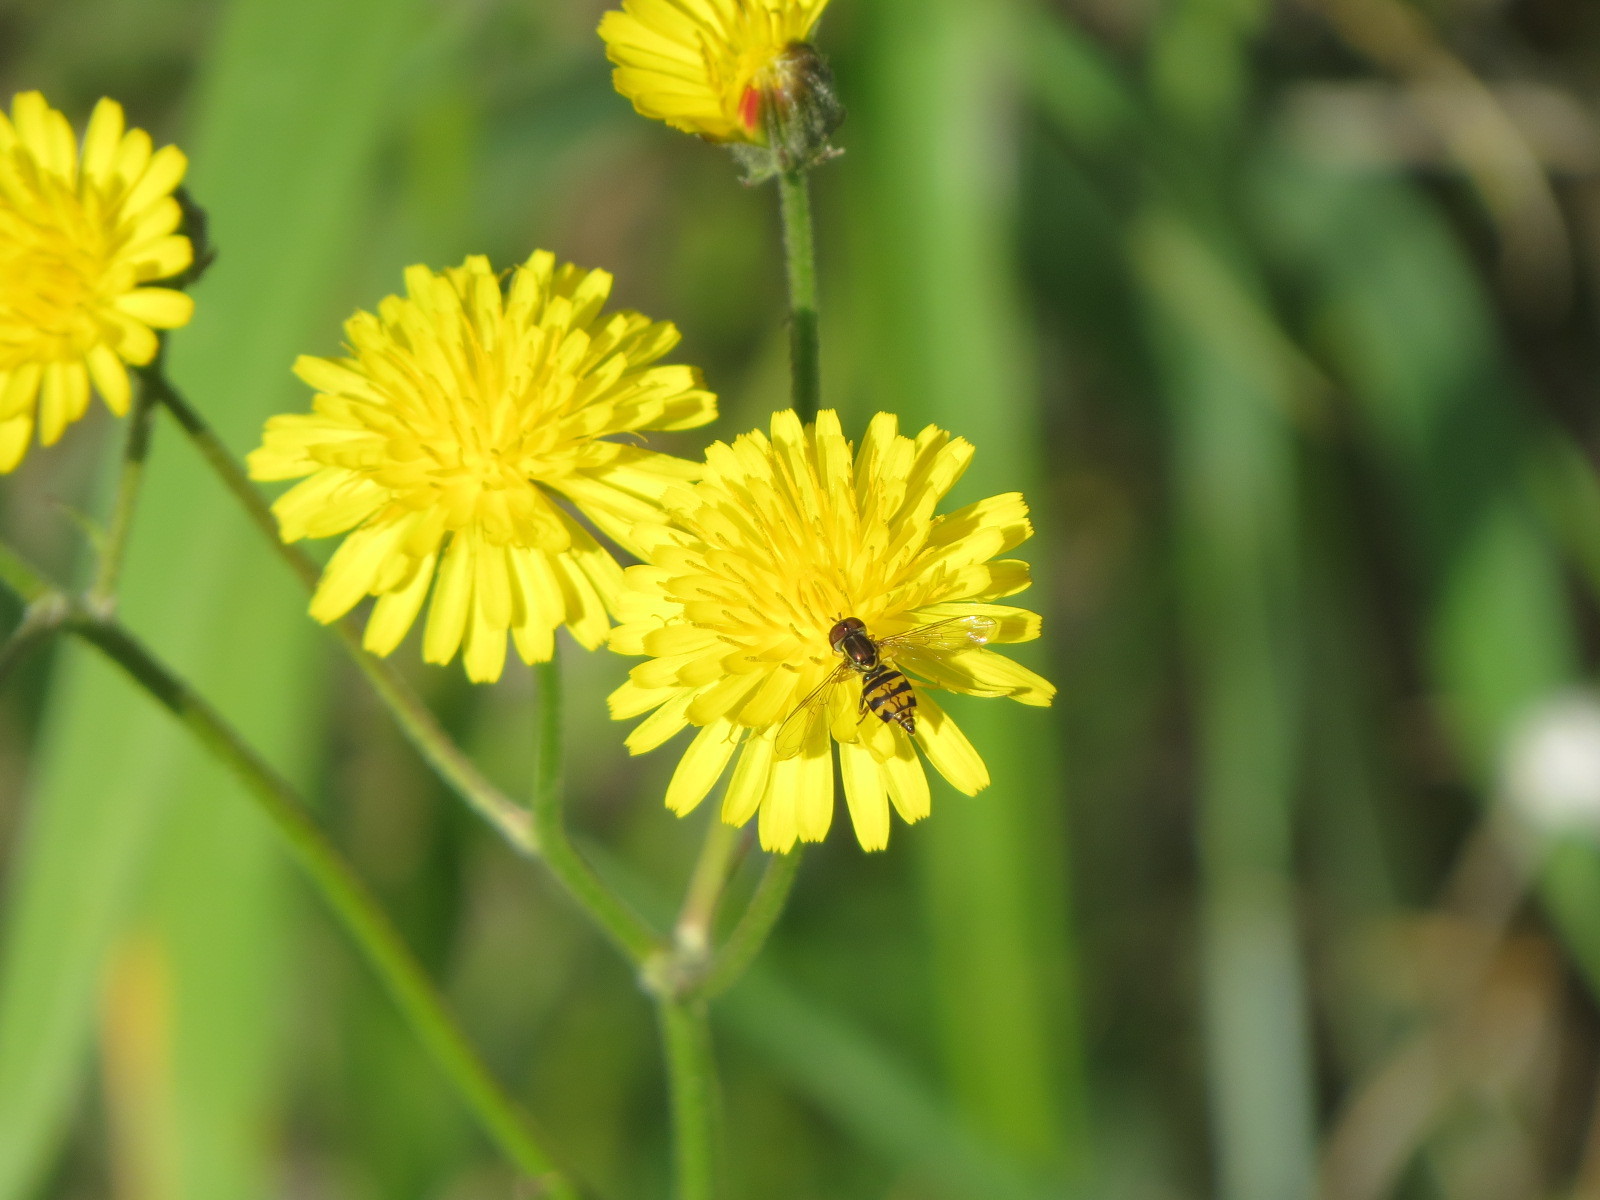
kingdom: Animalia
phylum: Arthropoda
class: Insecta
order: Diptera
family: Syrphidae
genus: Toxomerus
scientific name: Toxomerus occidentalis
